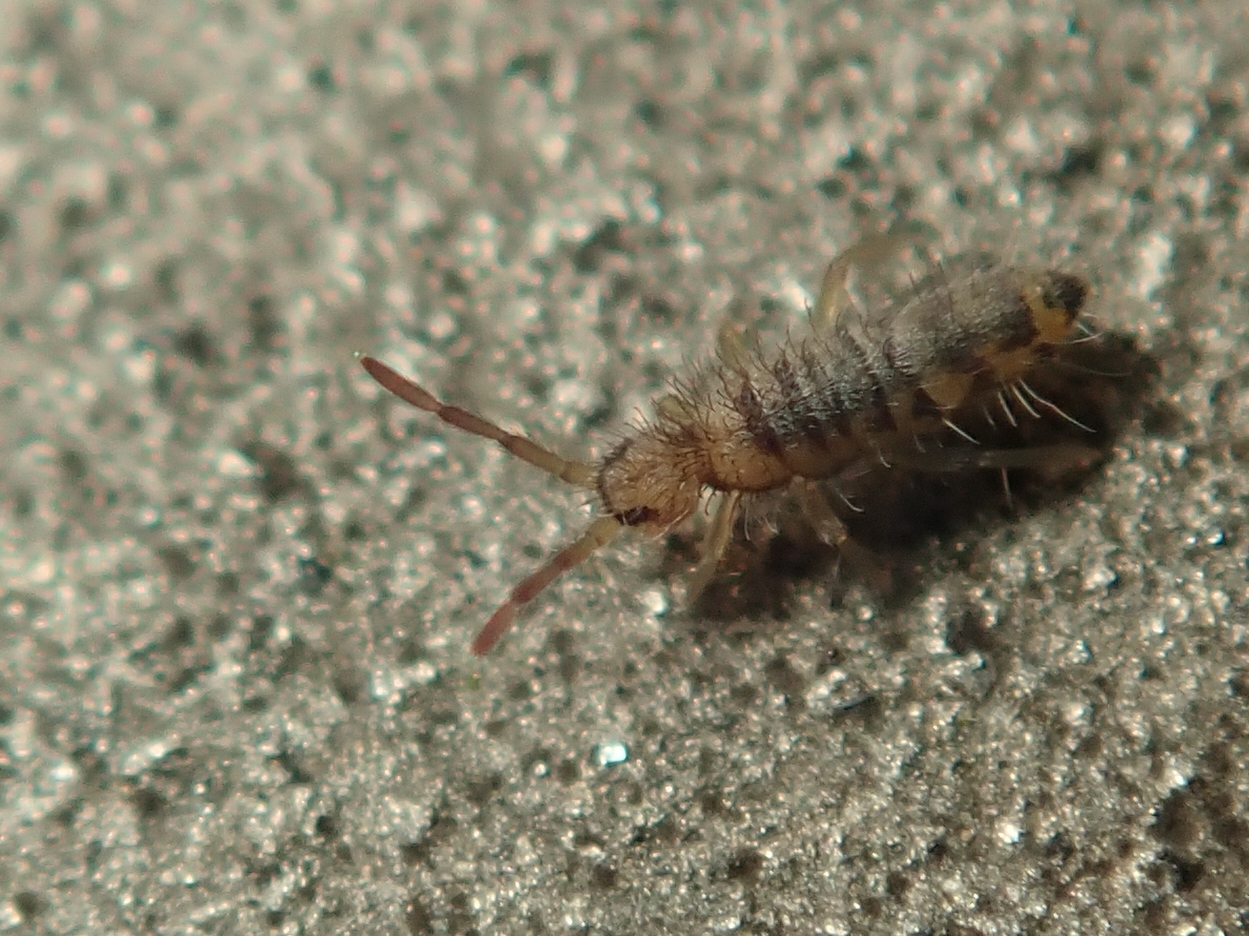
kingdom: Animalia
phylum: Arthropoda
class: Collembola
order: Entomobryomorpha
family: Entomobryidae
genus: Entomobrya
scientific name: Entomobrya multifasciata
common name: Springtail
